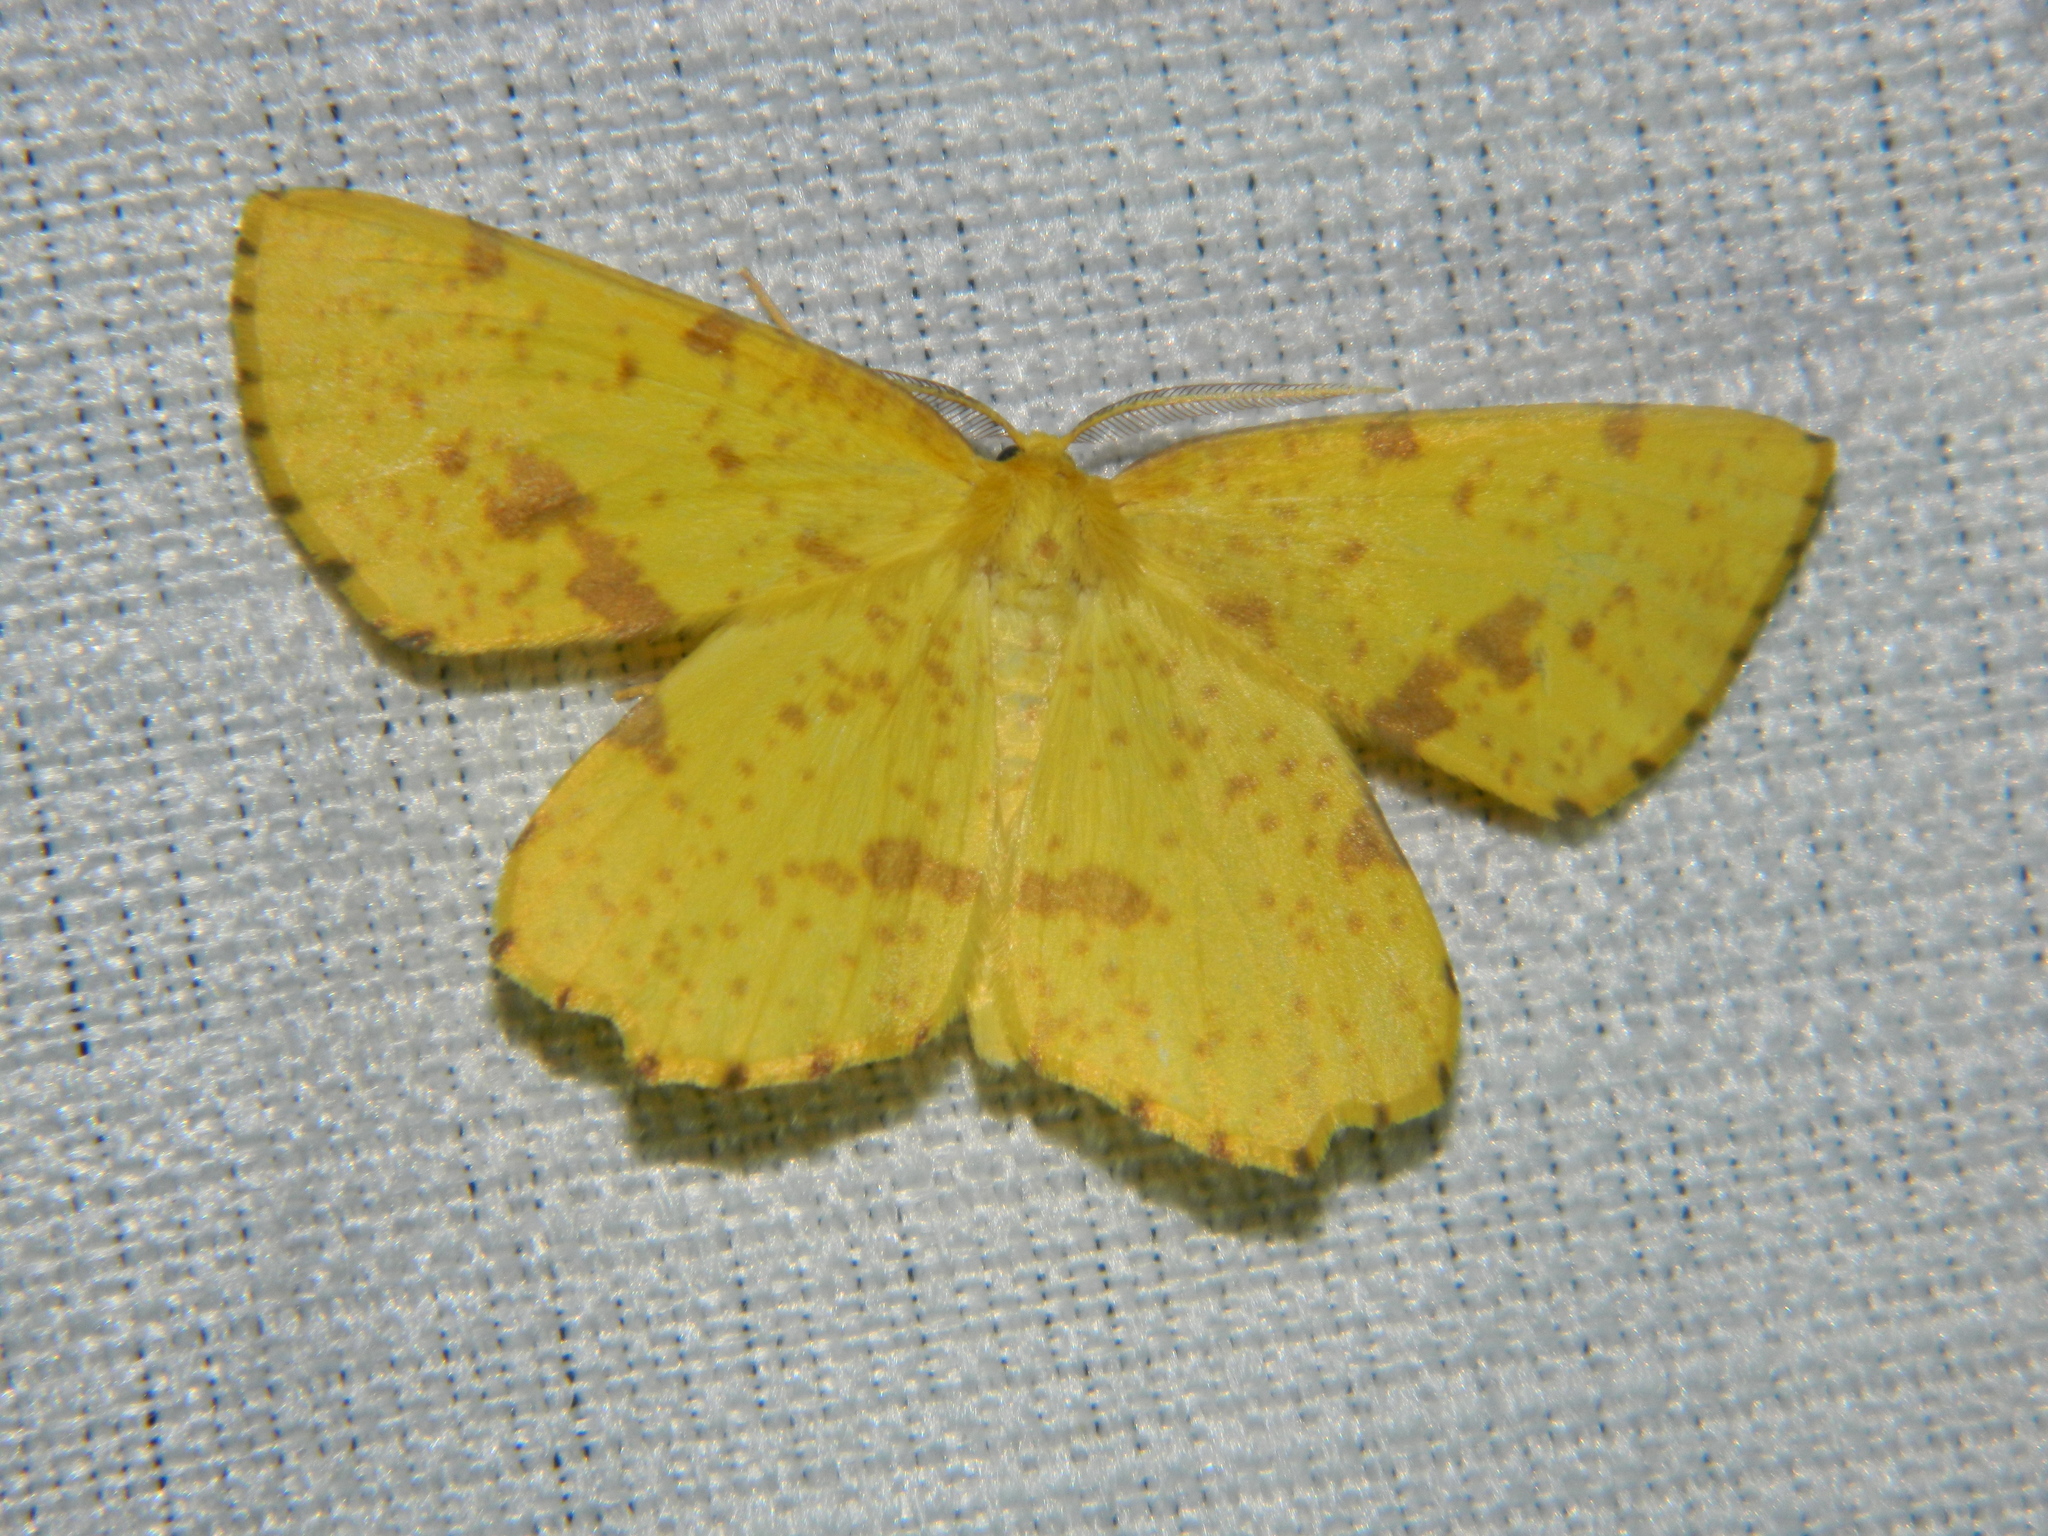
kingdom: Animalia
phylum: Arthropoda
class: Insecta
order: Lepidoptera
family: Geometridae
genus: Xanthotype
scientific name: Xanthotype
